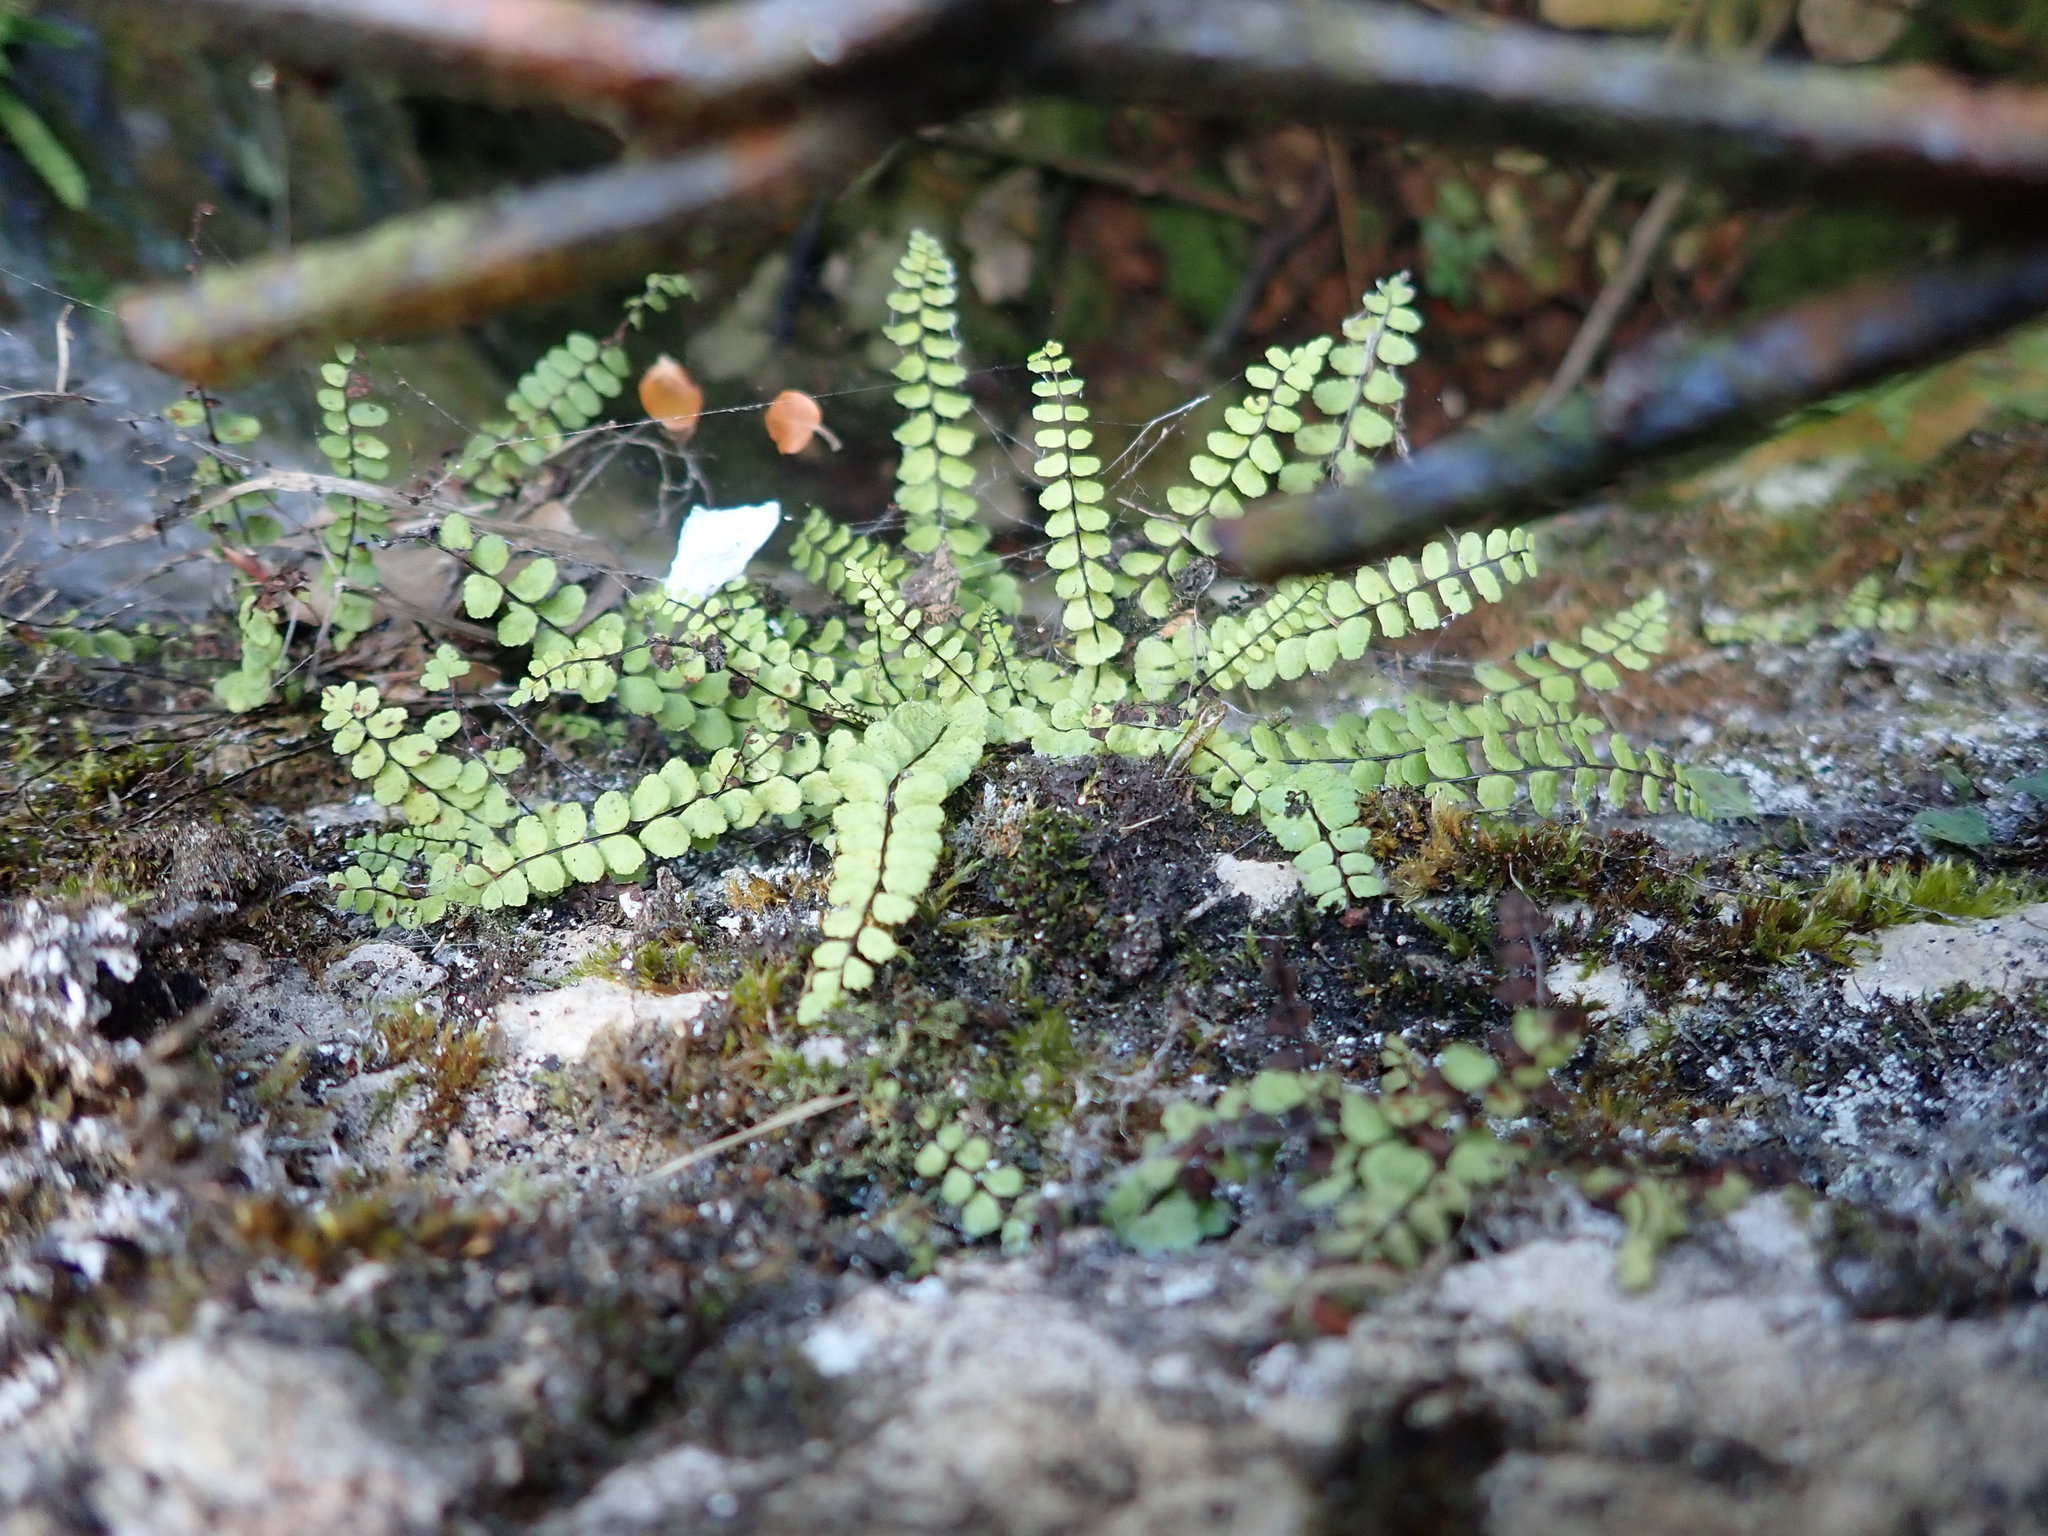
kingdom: Plantae
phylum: Tracheophyta
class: Polypodiopsida
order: Polypodiales
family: Aspleniaceae
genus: Asplenium
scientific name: Asplenium trichomanes
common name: Maidenhair spleenwort
